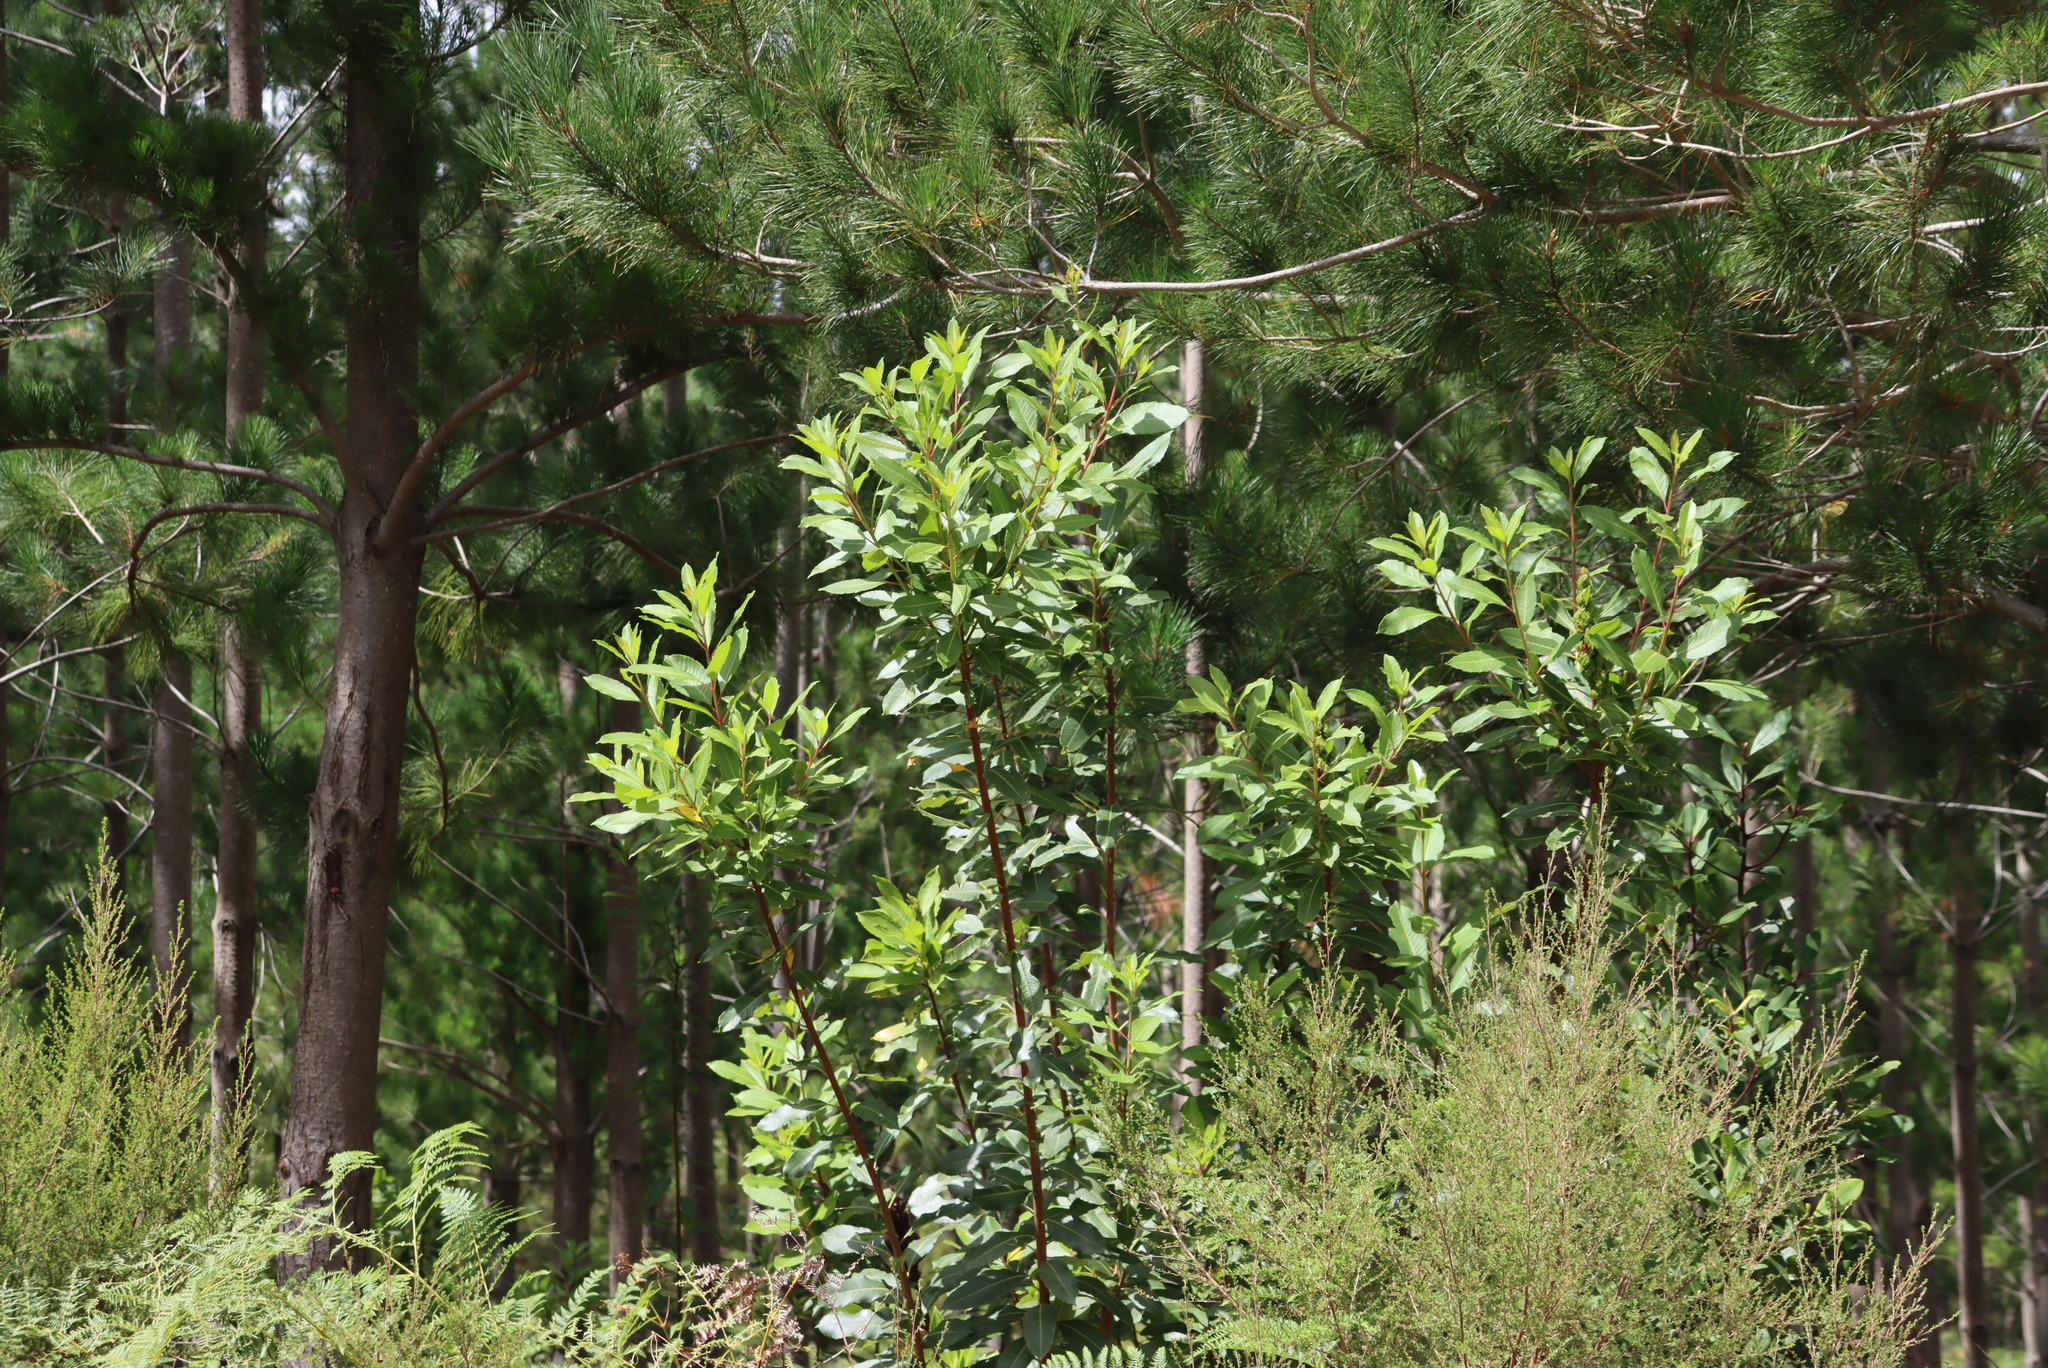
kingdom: Plantae
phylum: Tracheophyta
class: Magnoliopsida
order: Sapindales
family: Anacardiaceae
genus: Laurophyllus
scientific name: Laurophyllus capensis
